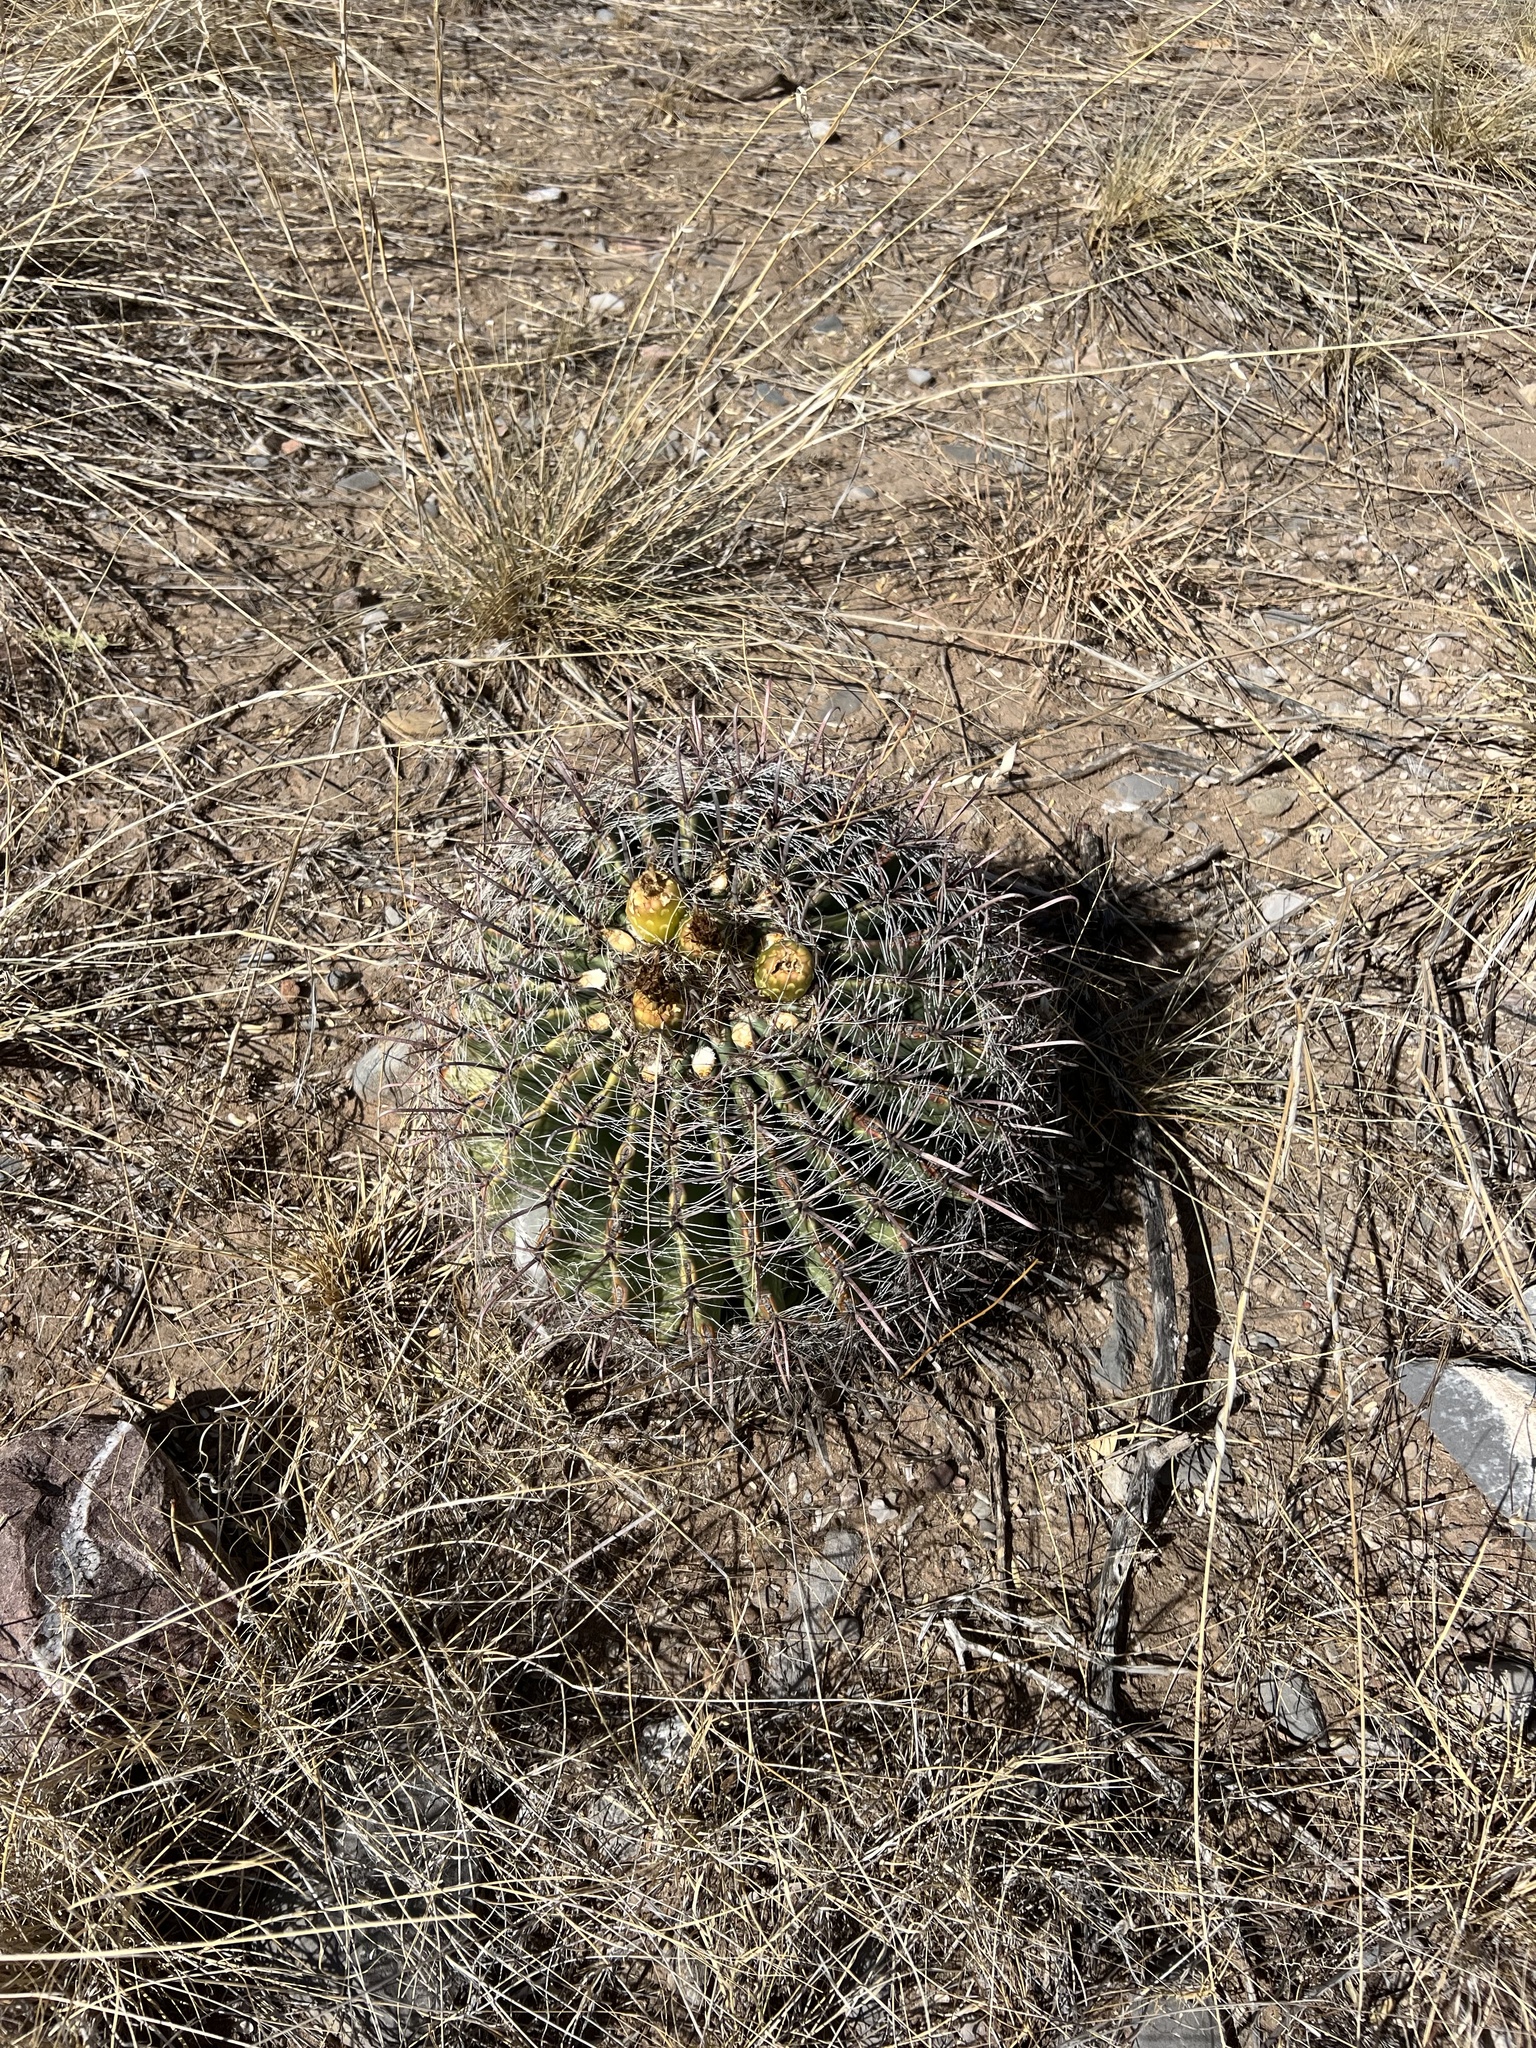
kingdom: Plantae
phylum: Tracheophyta
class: Magnoliopsida
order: Caryophyllales
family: Cactaceae
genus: Ferocactus
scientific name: Ferocactus wislizeni
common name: Candy barrel cactus
